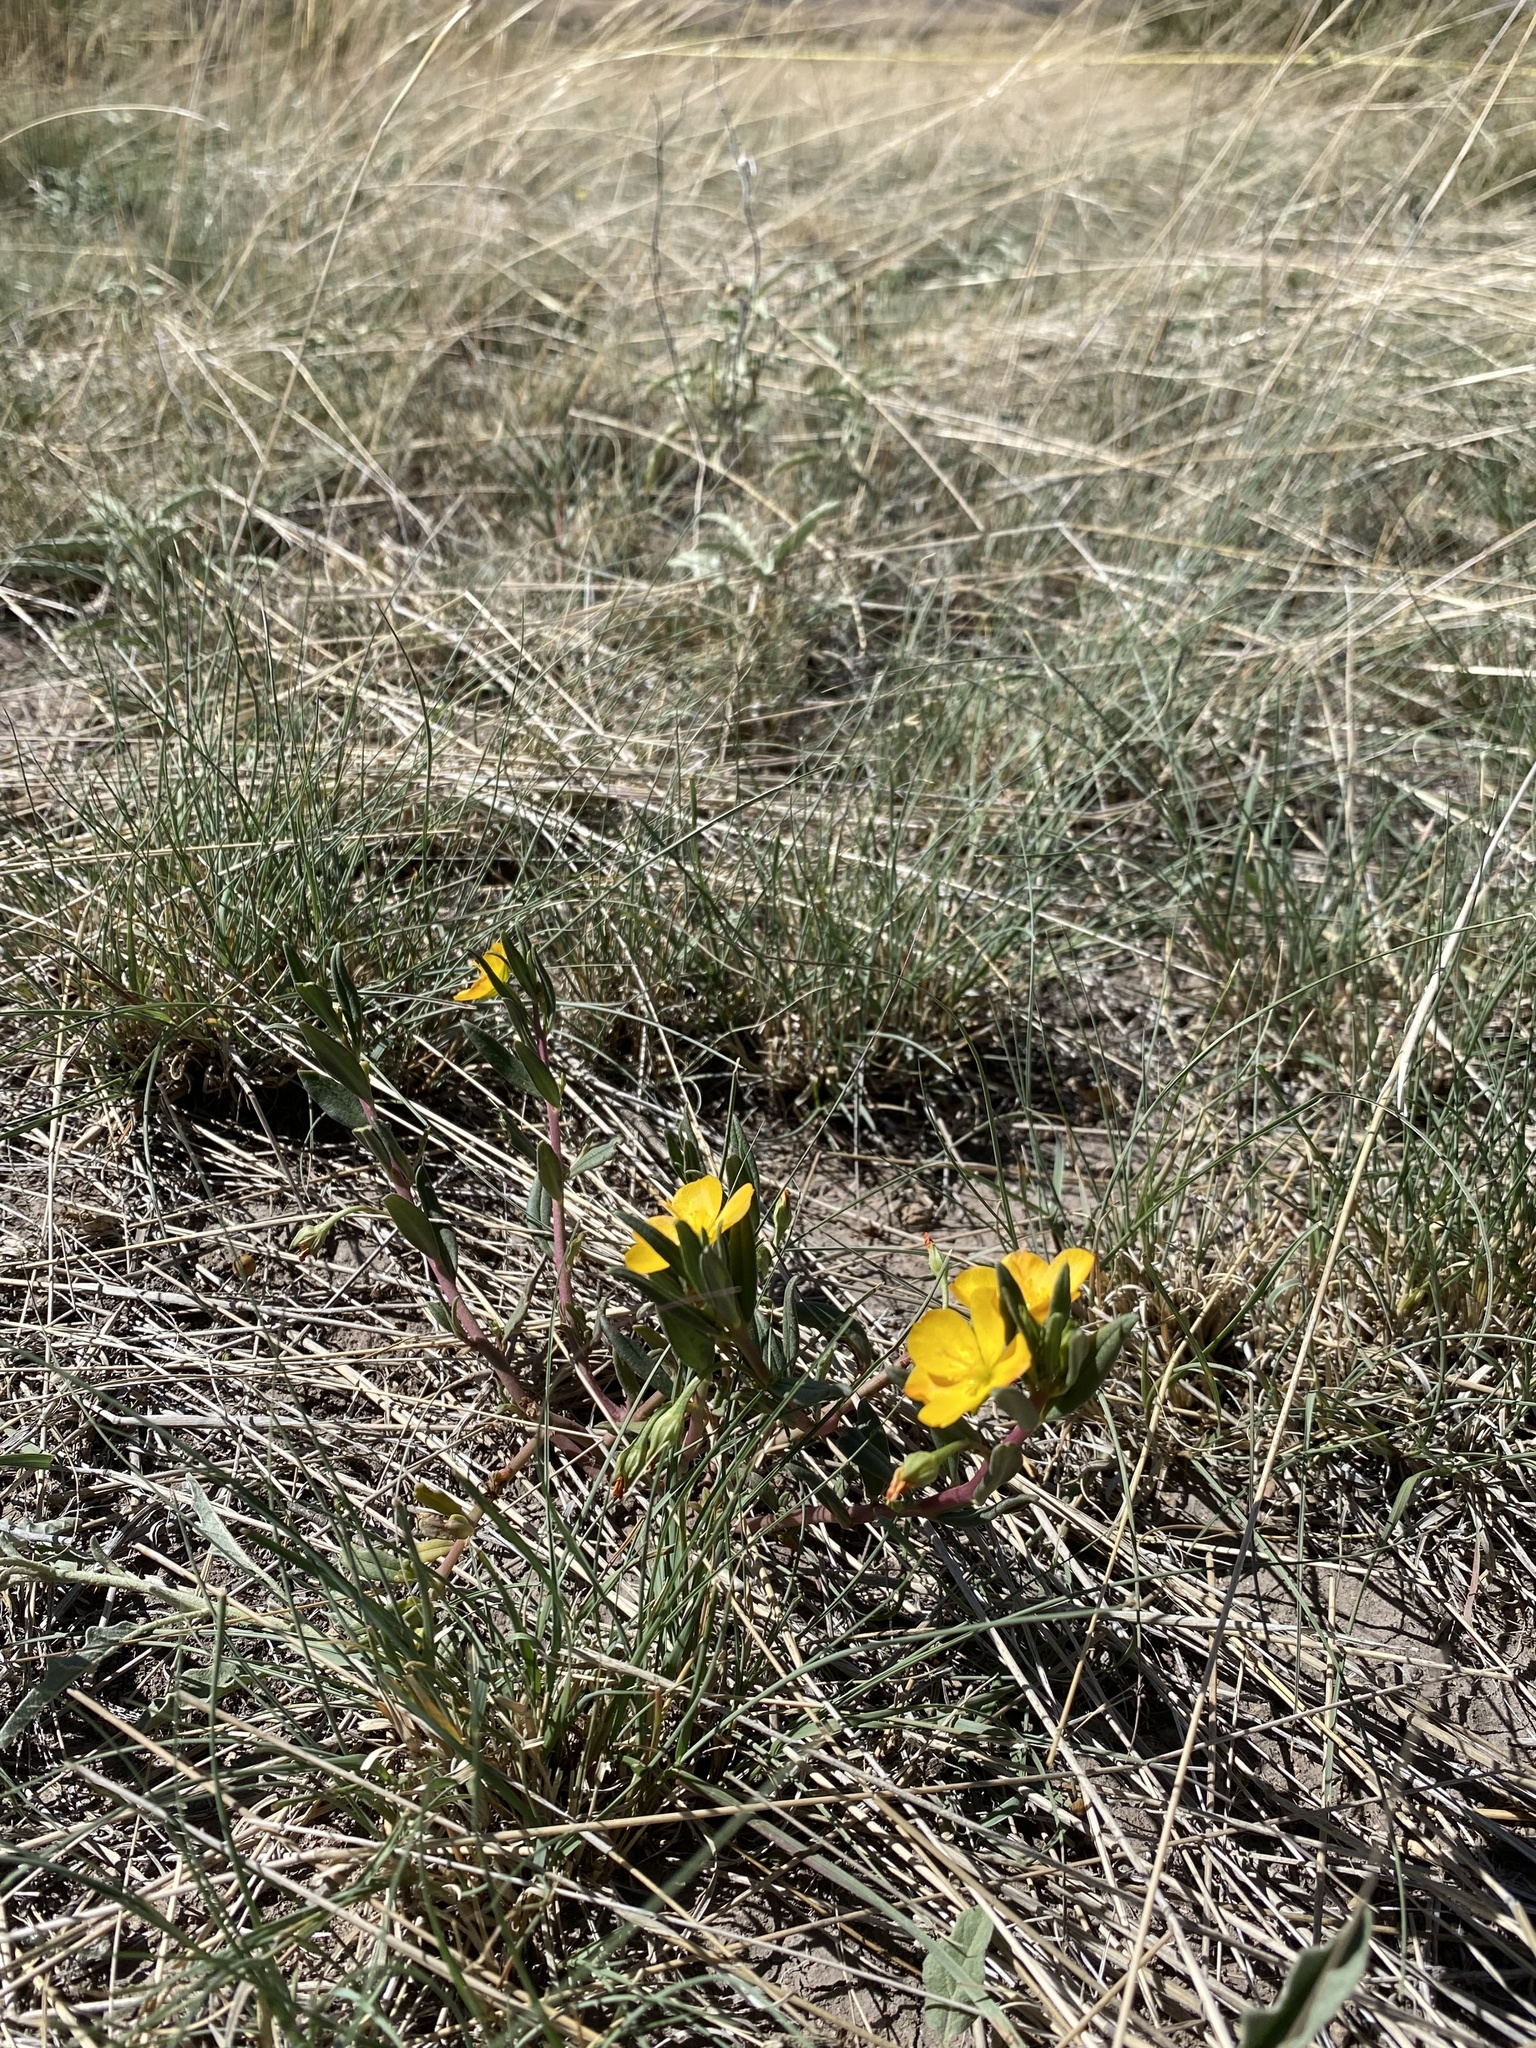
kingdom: Plantae
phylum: Tracheophyta
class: Magnoliopsida
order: Caryophyllales
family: Montiaceae
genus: Phemeranthus
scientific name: Phemeranthus aurantiacus
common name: Orange fameflower
